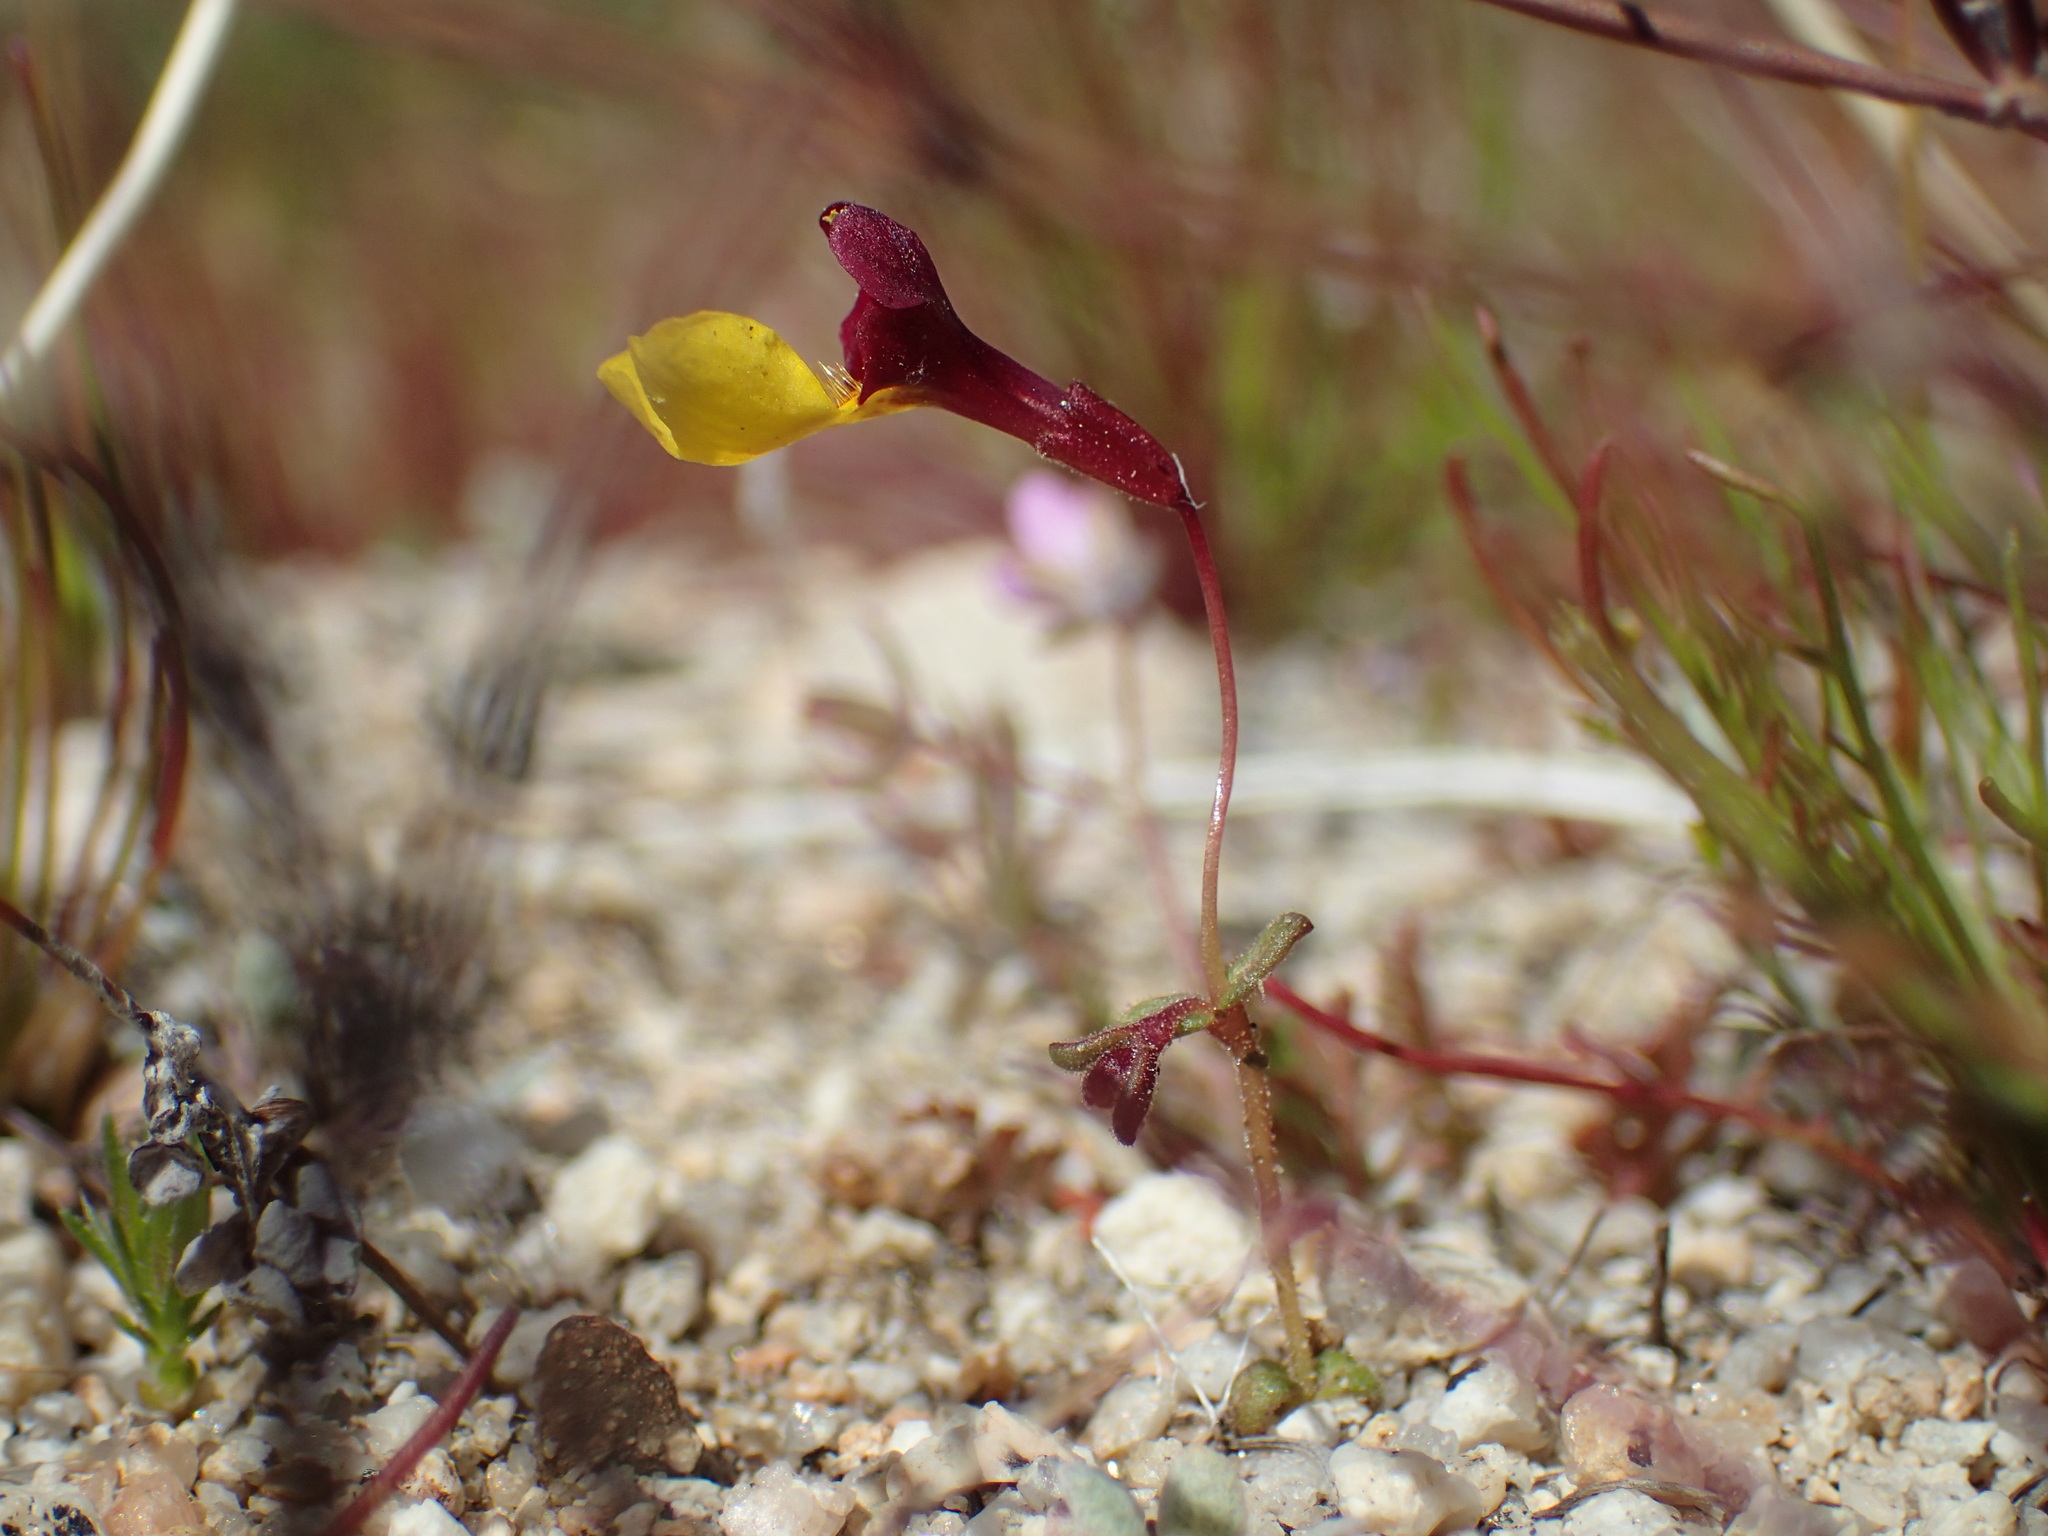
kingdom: Plantae
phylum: Tracheophyta
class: Magnoliopsida
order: Lamiales
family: Phrymaceae
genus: Erythranthe
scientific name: Erythranthe shevockii
